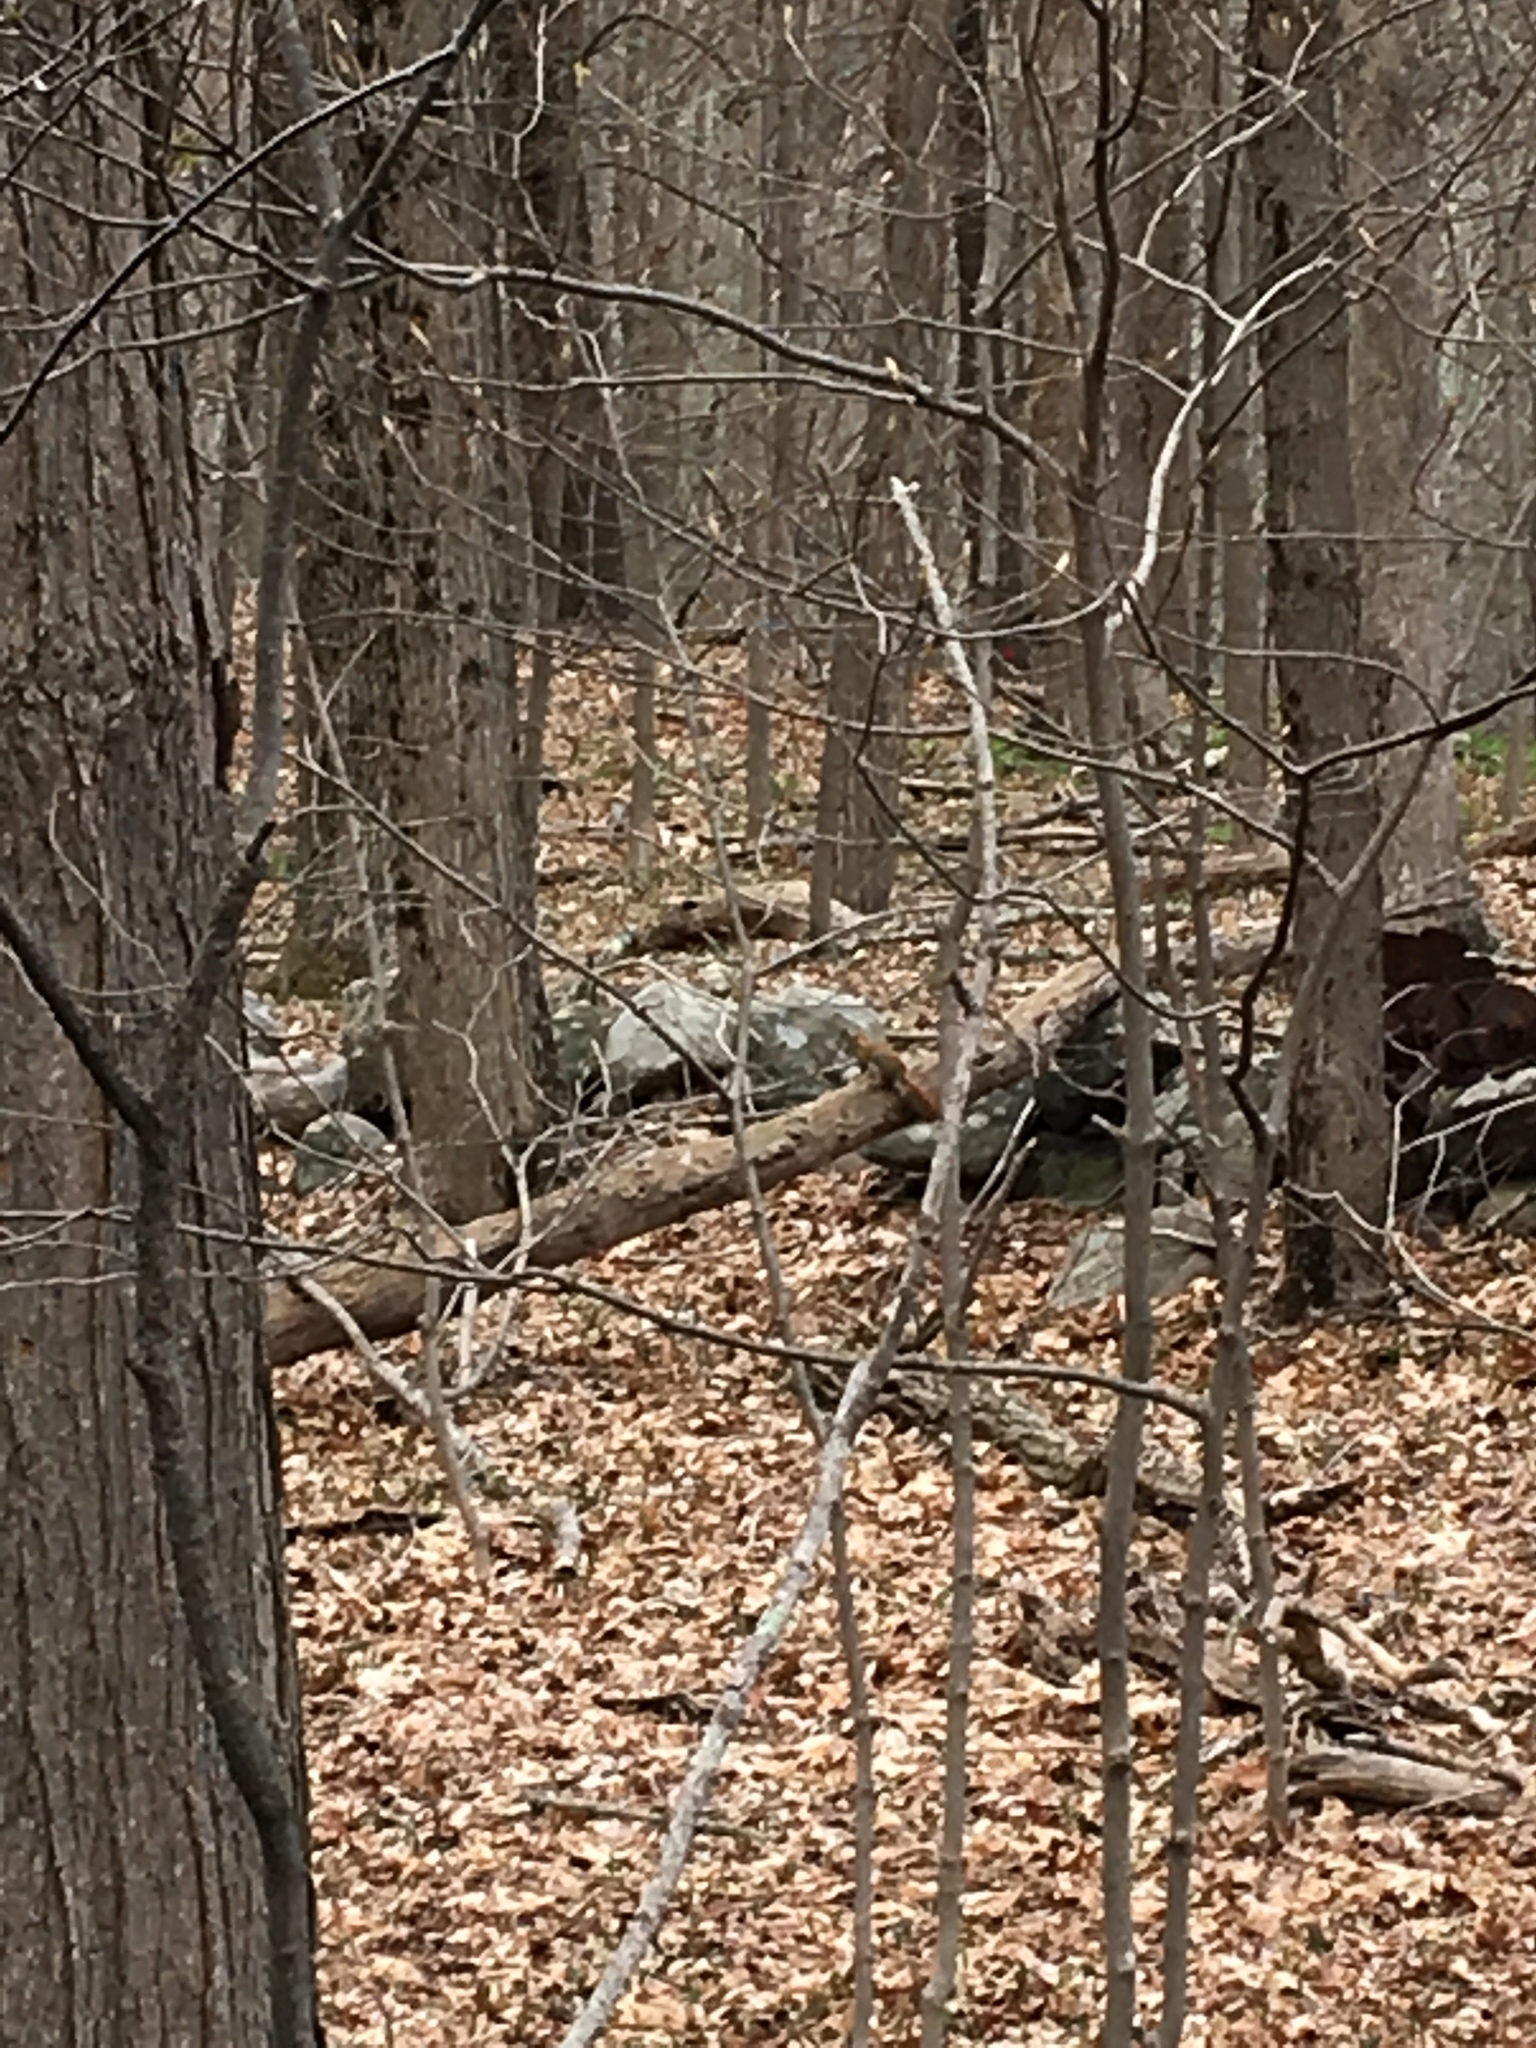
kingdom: Animalia
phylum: Chordata
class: Mammalia
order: Rodentia
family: Sciuridae
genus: Tamiasciurus
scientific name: Tamiasciurus hudsonicus
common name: Red squirrel
